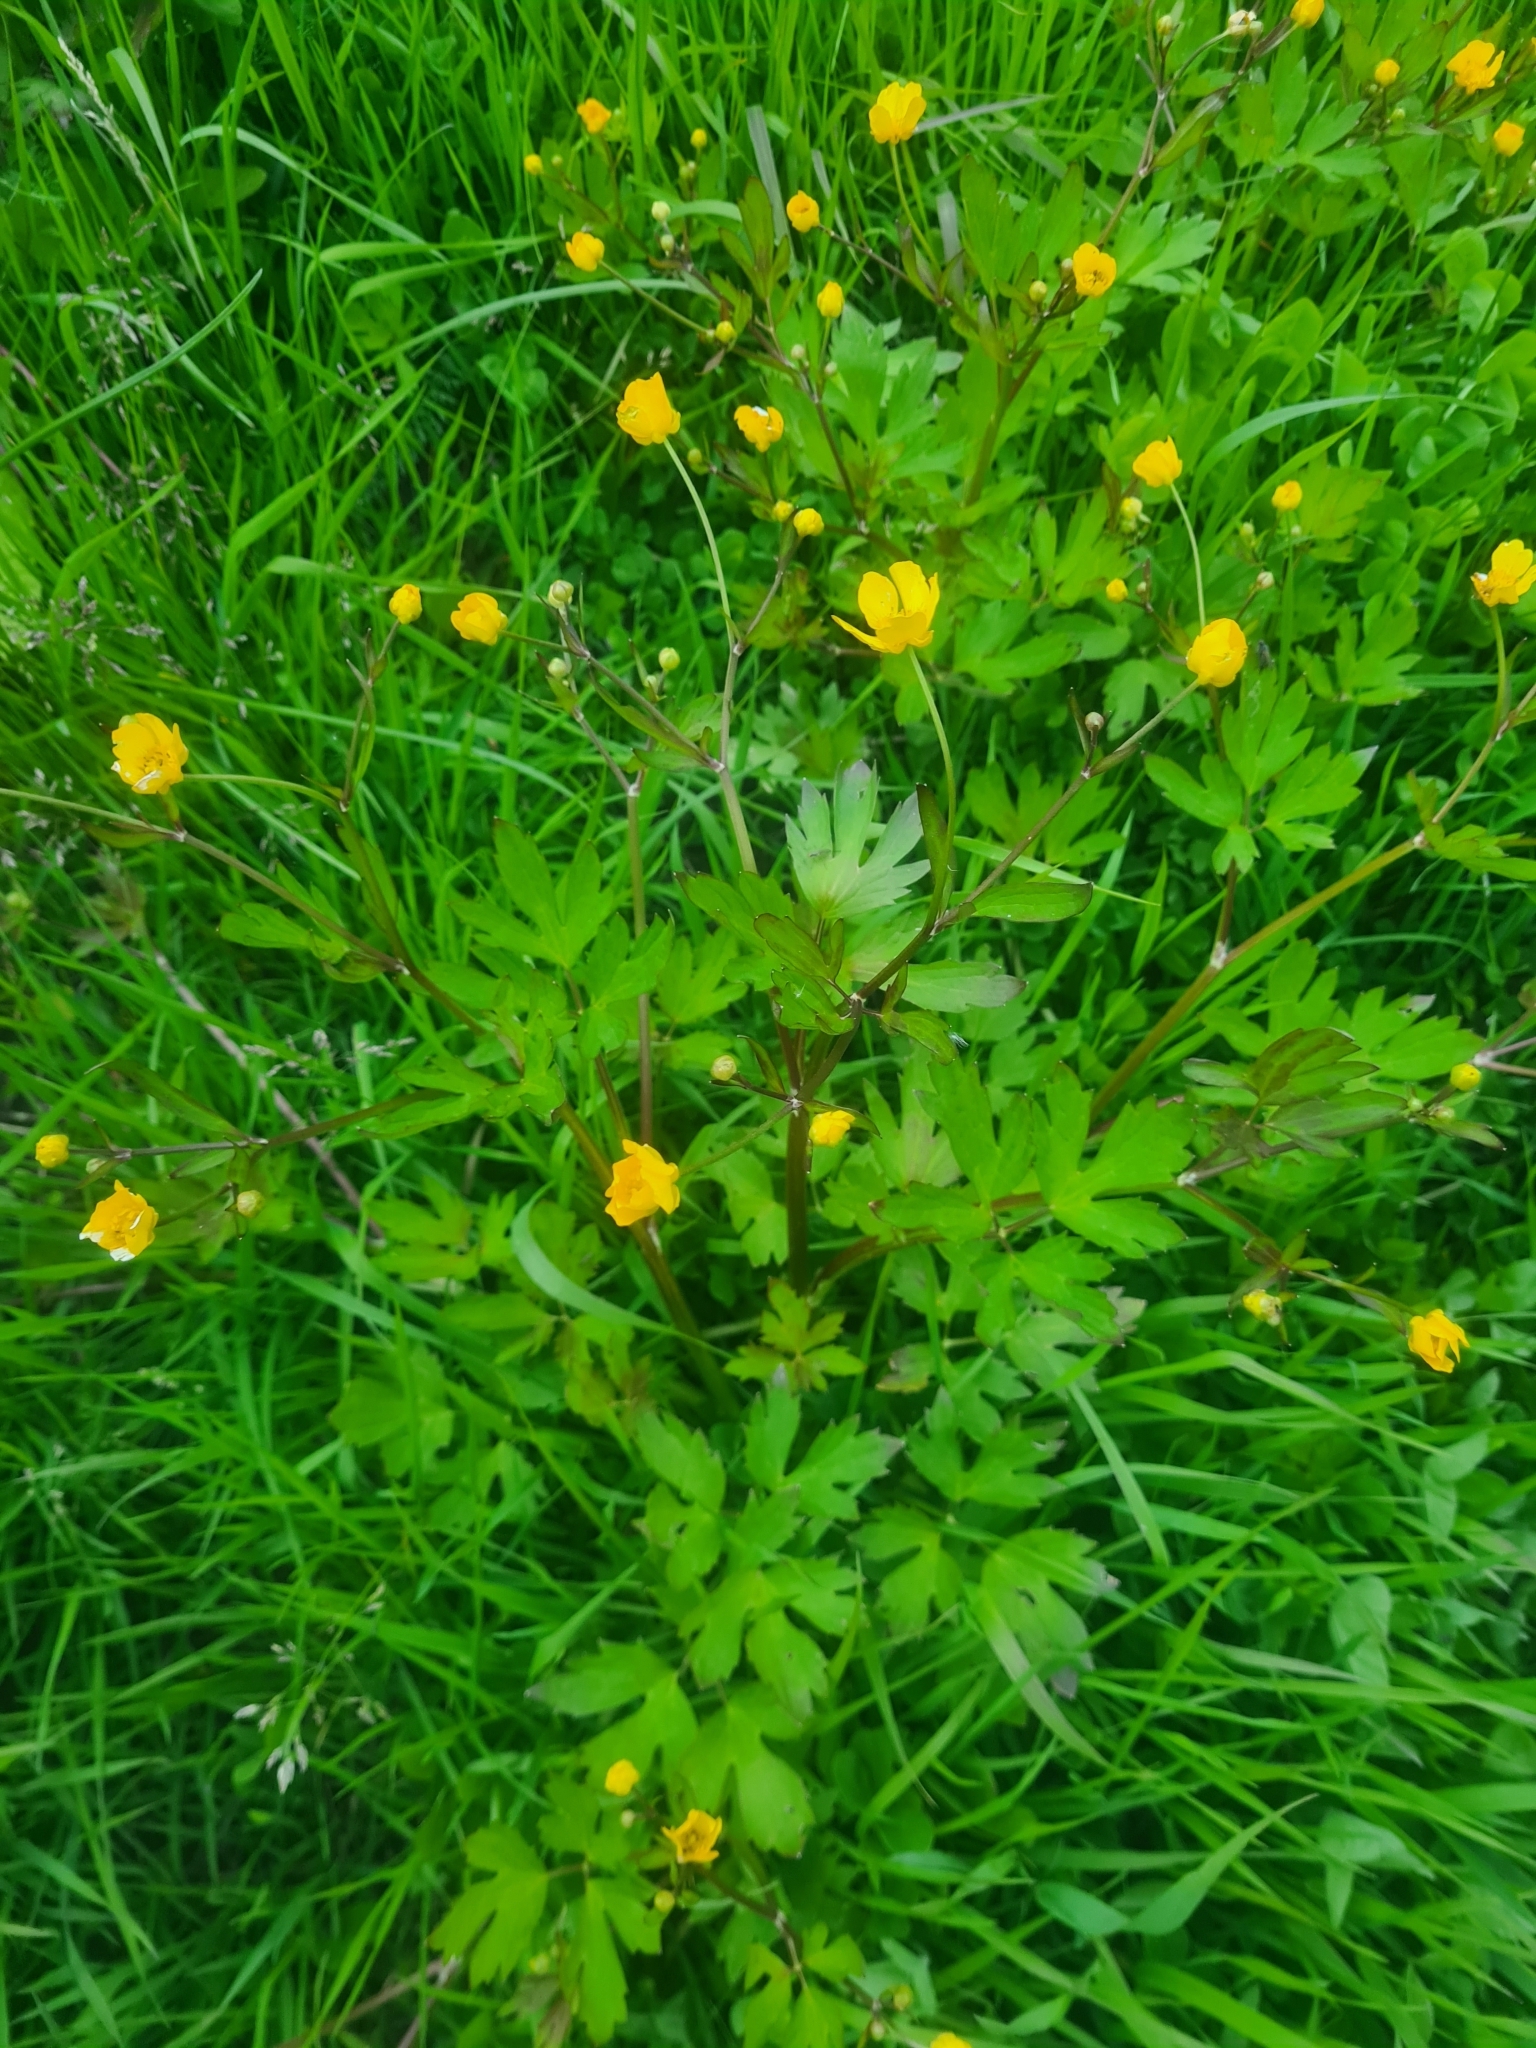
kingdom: Plantae
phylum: Tracheophyta
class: Magnoliopsida
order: Ranunculales
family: Ranunculaceae
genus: Ranunculus
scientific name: Ranunculus repens
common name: Creeping buttercup
